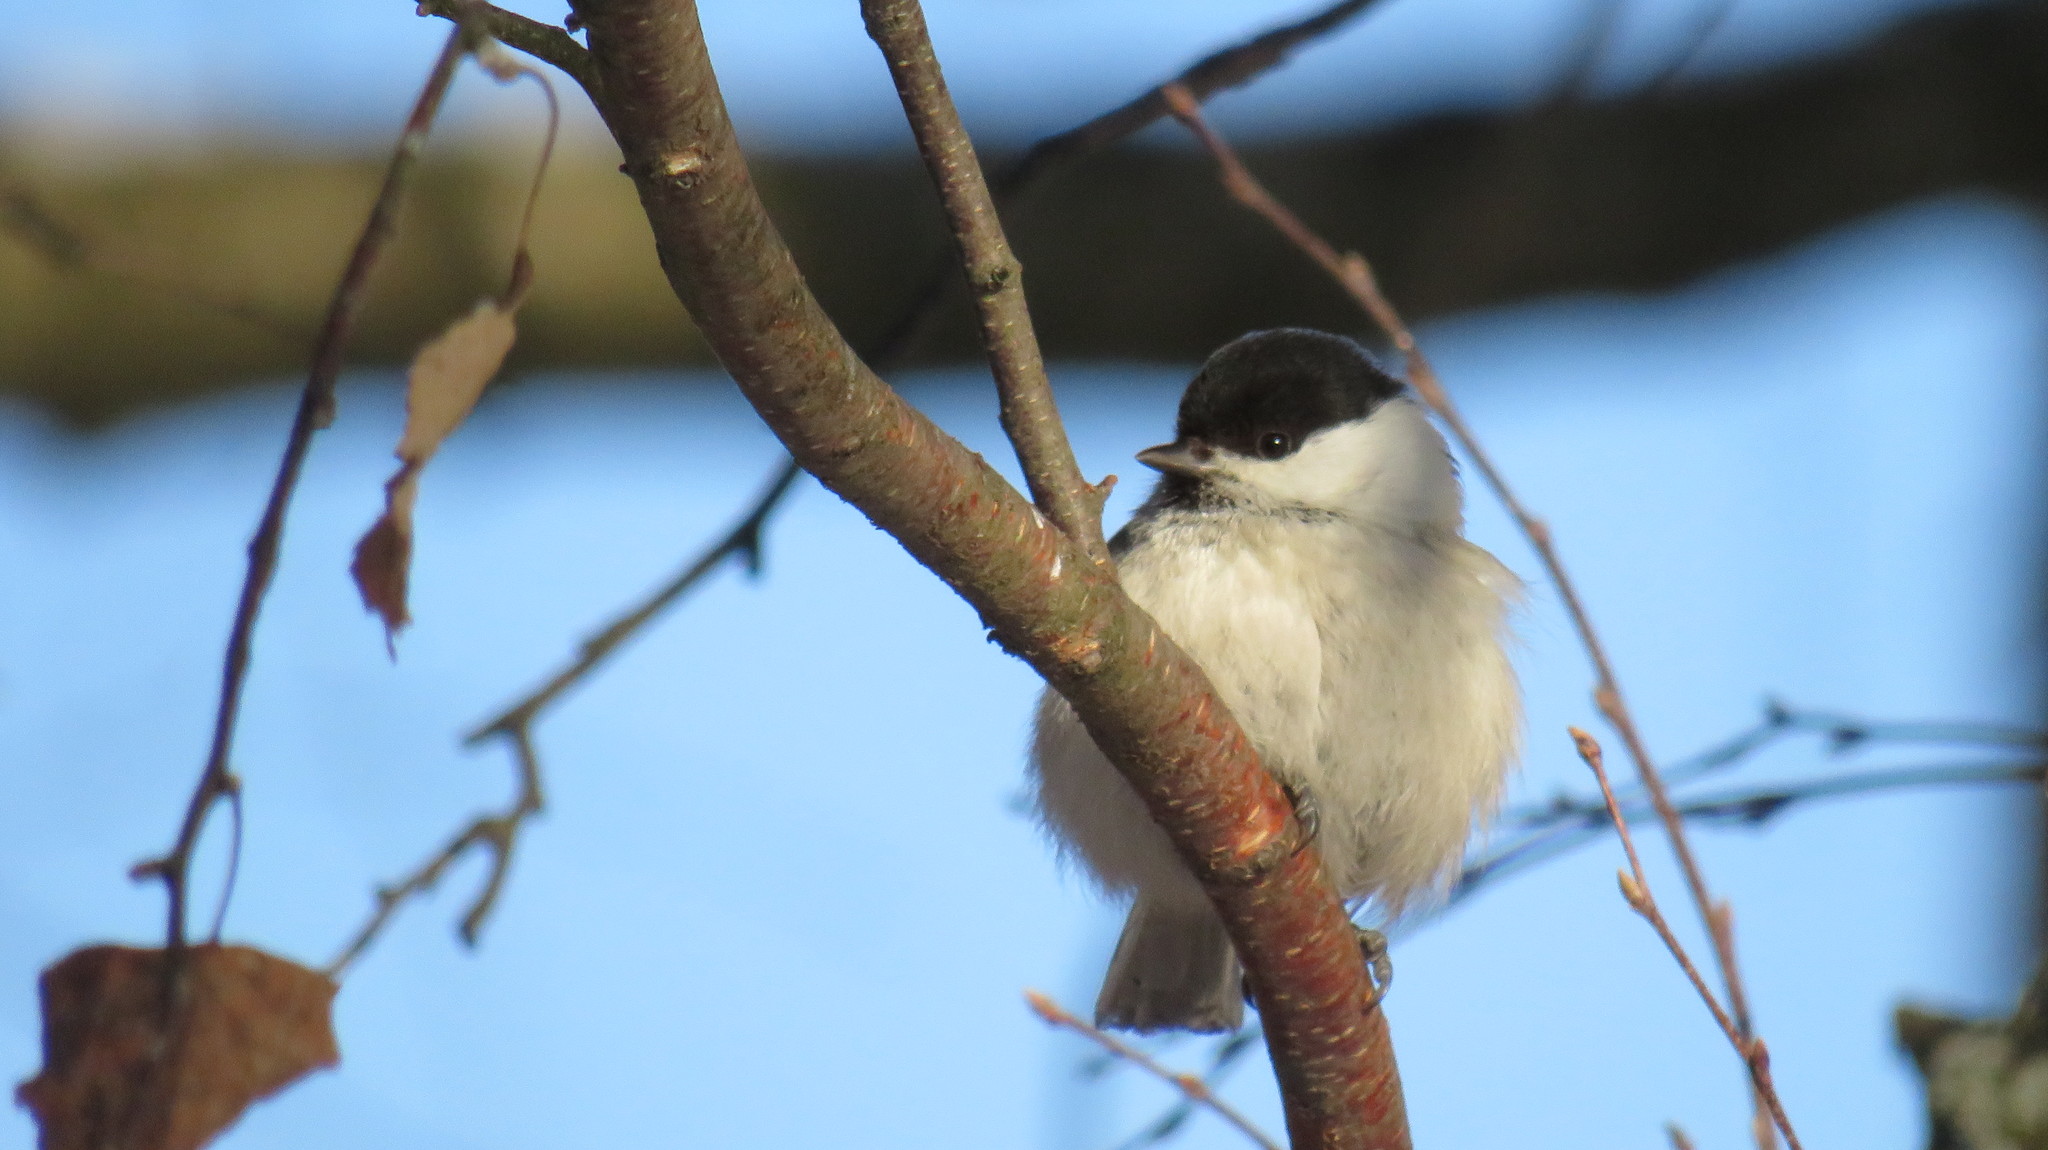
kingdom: Animalia
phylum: Chordata
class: Aves
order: Passeriformes
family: Paridae
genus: Poecile
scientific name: Poecile montanus
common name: Willow tit
